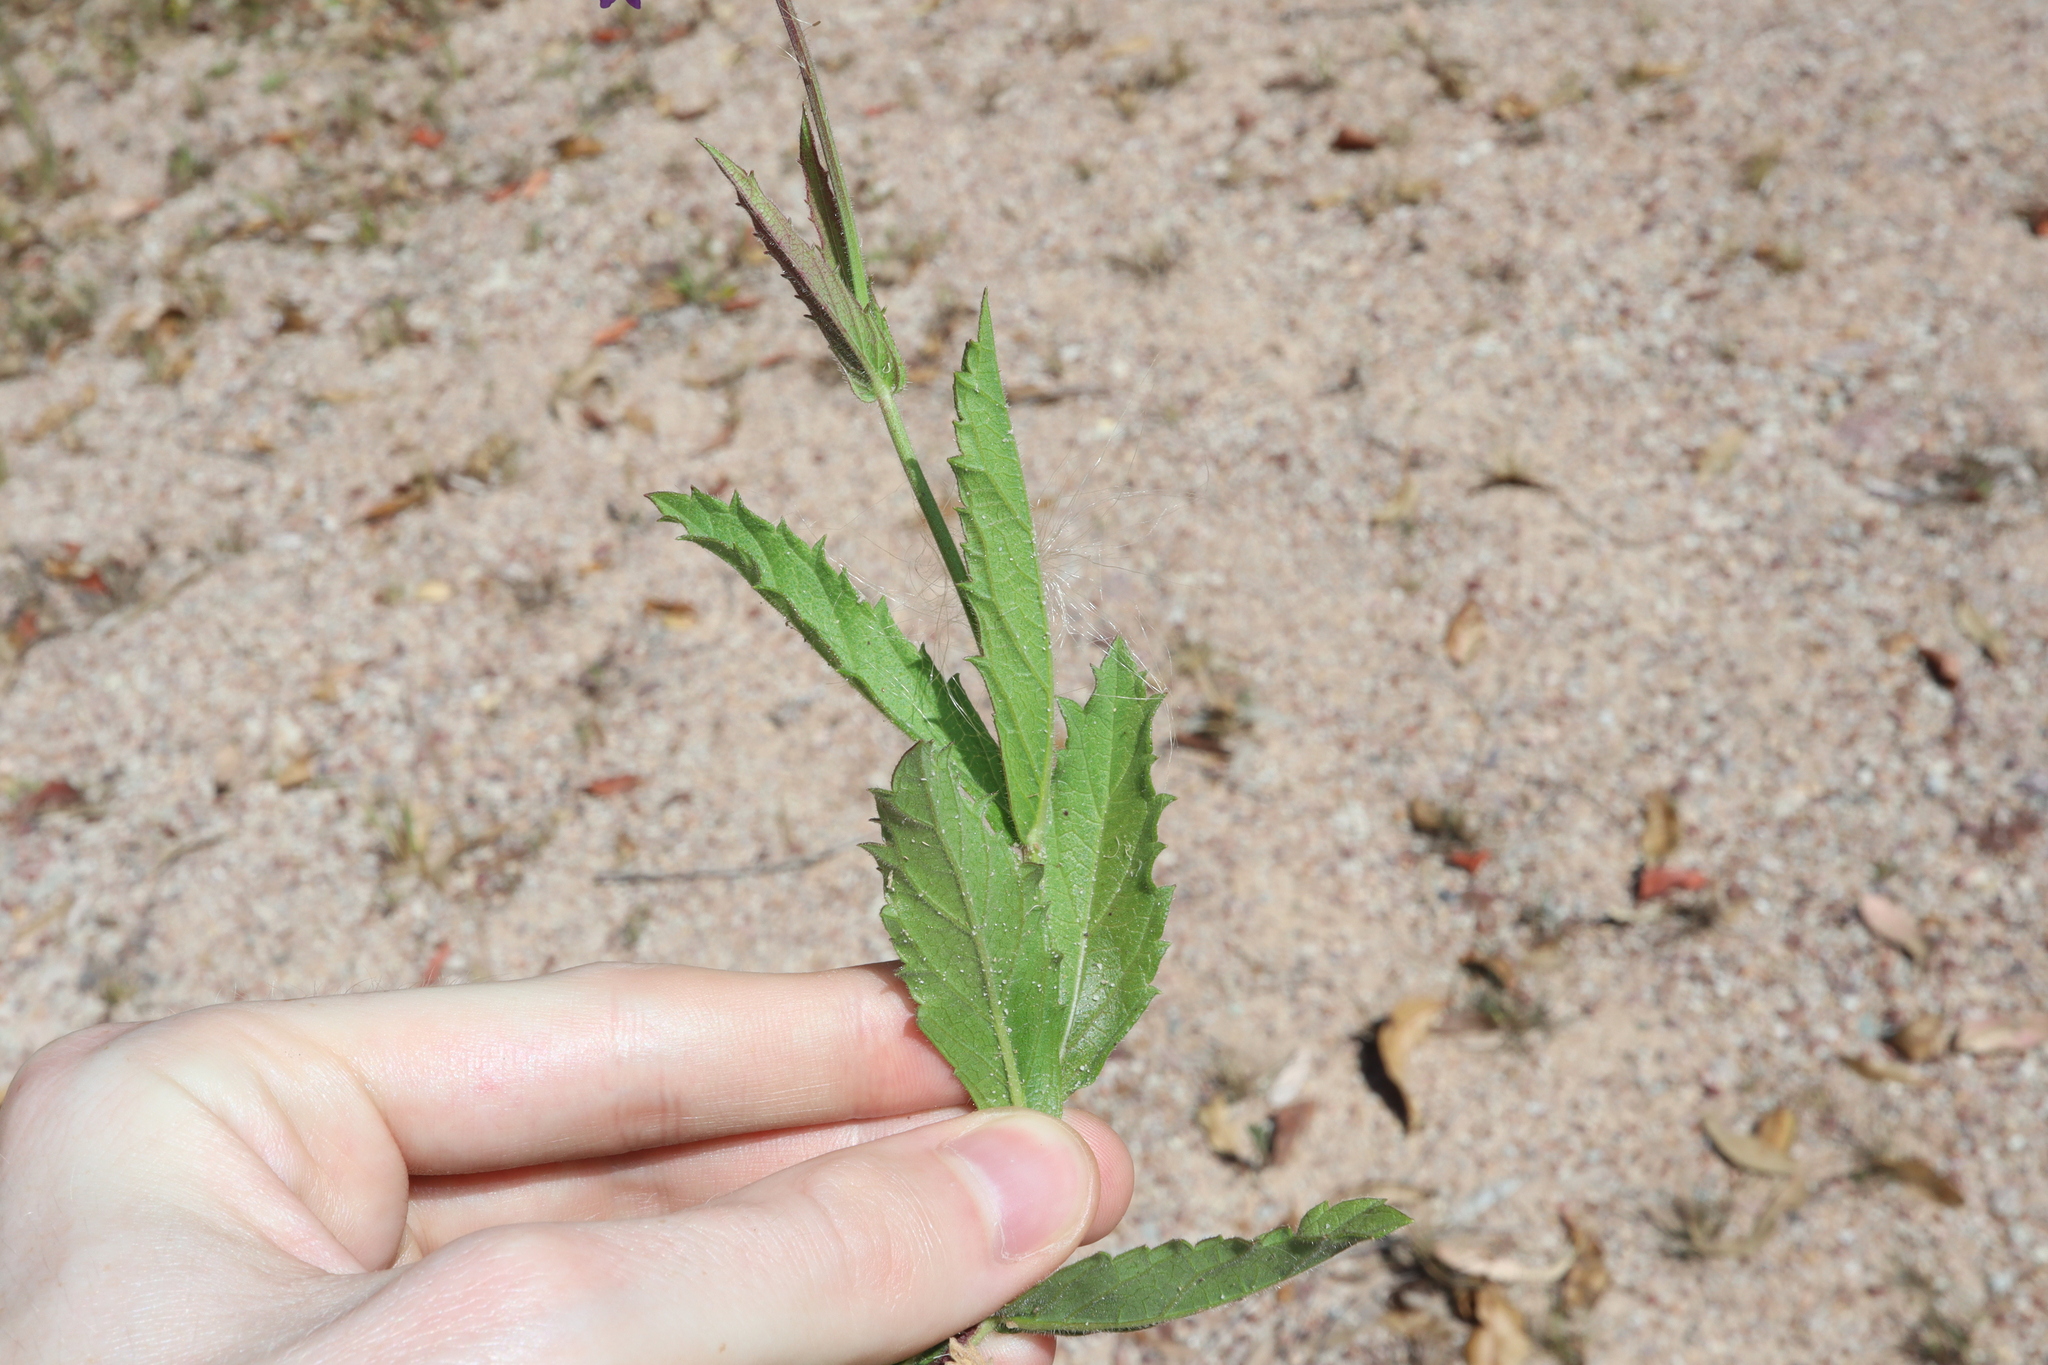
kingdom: Plantae
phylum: Tracheophyta
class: Magnoliopsida
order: Lamiales
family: Verbenaceae
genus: Verbena
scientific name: Verbena rigida
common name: Slender vervain
